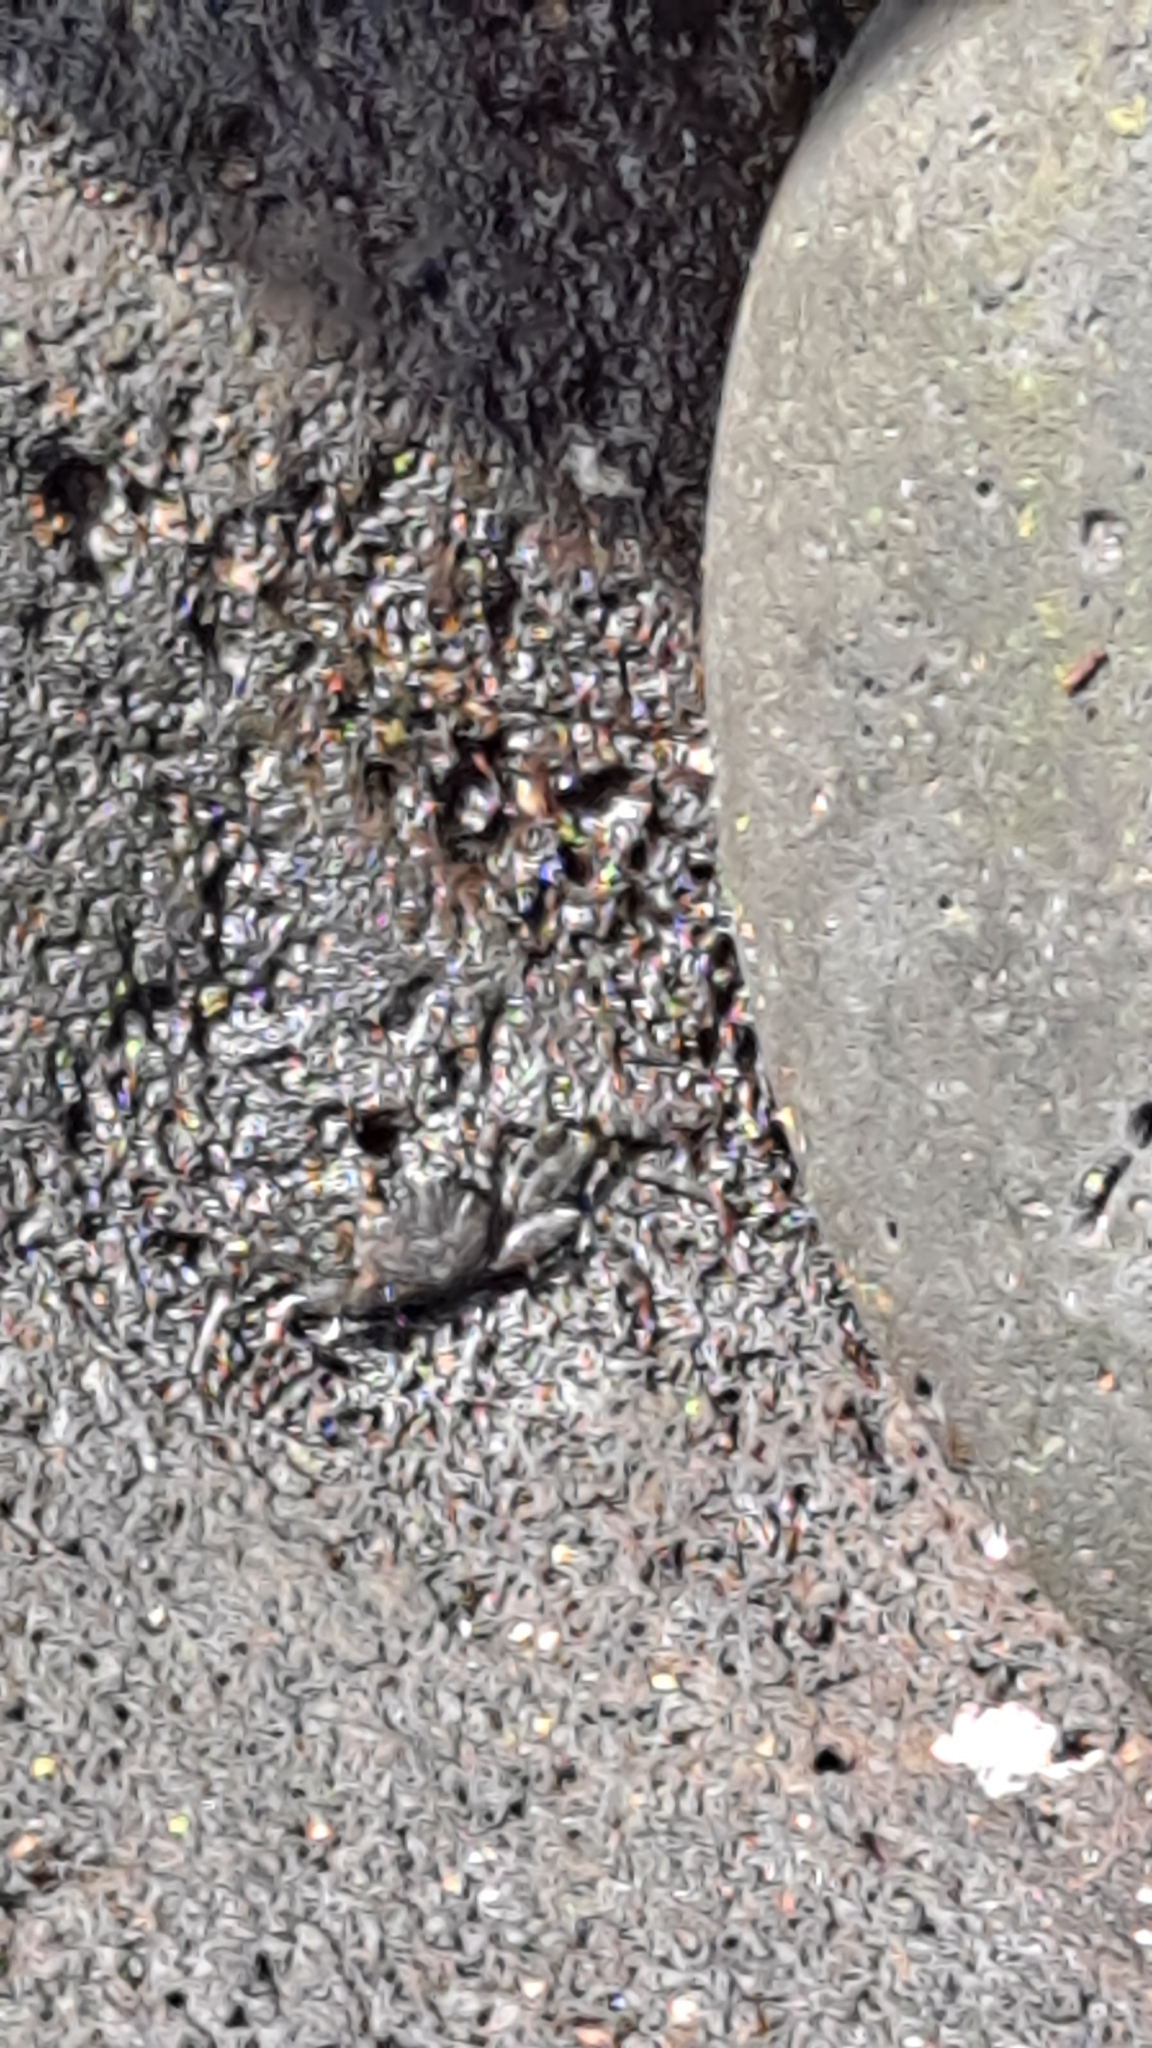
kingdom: Animalia
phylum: Arthropoda
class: Malacostraca
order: Decapoda
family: Grapsidae
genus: Grapsus
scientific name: Grapsus adscensionis
